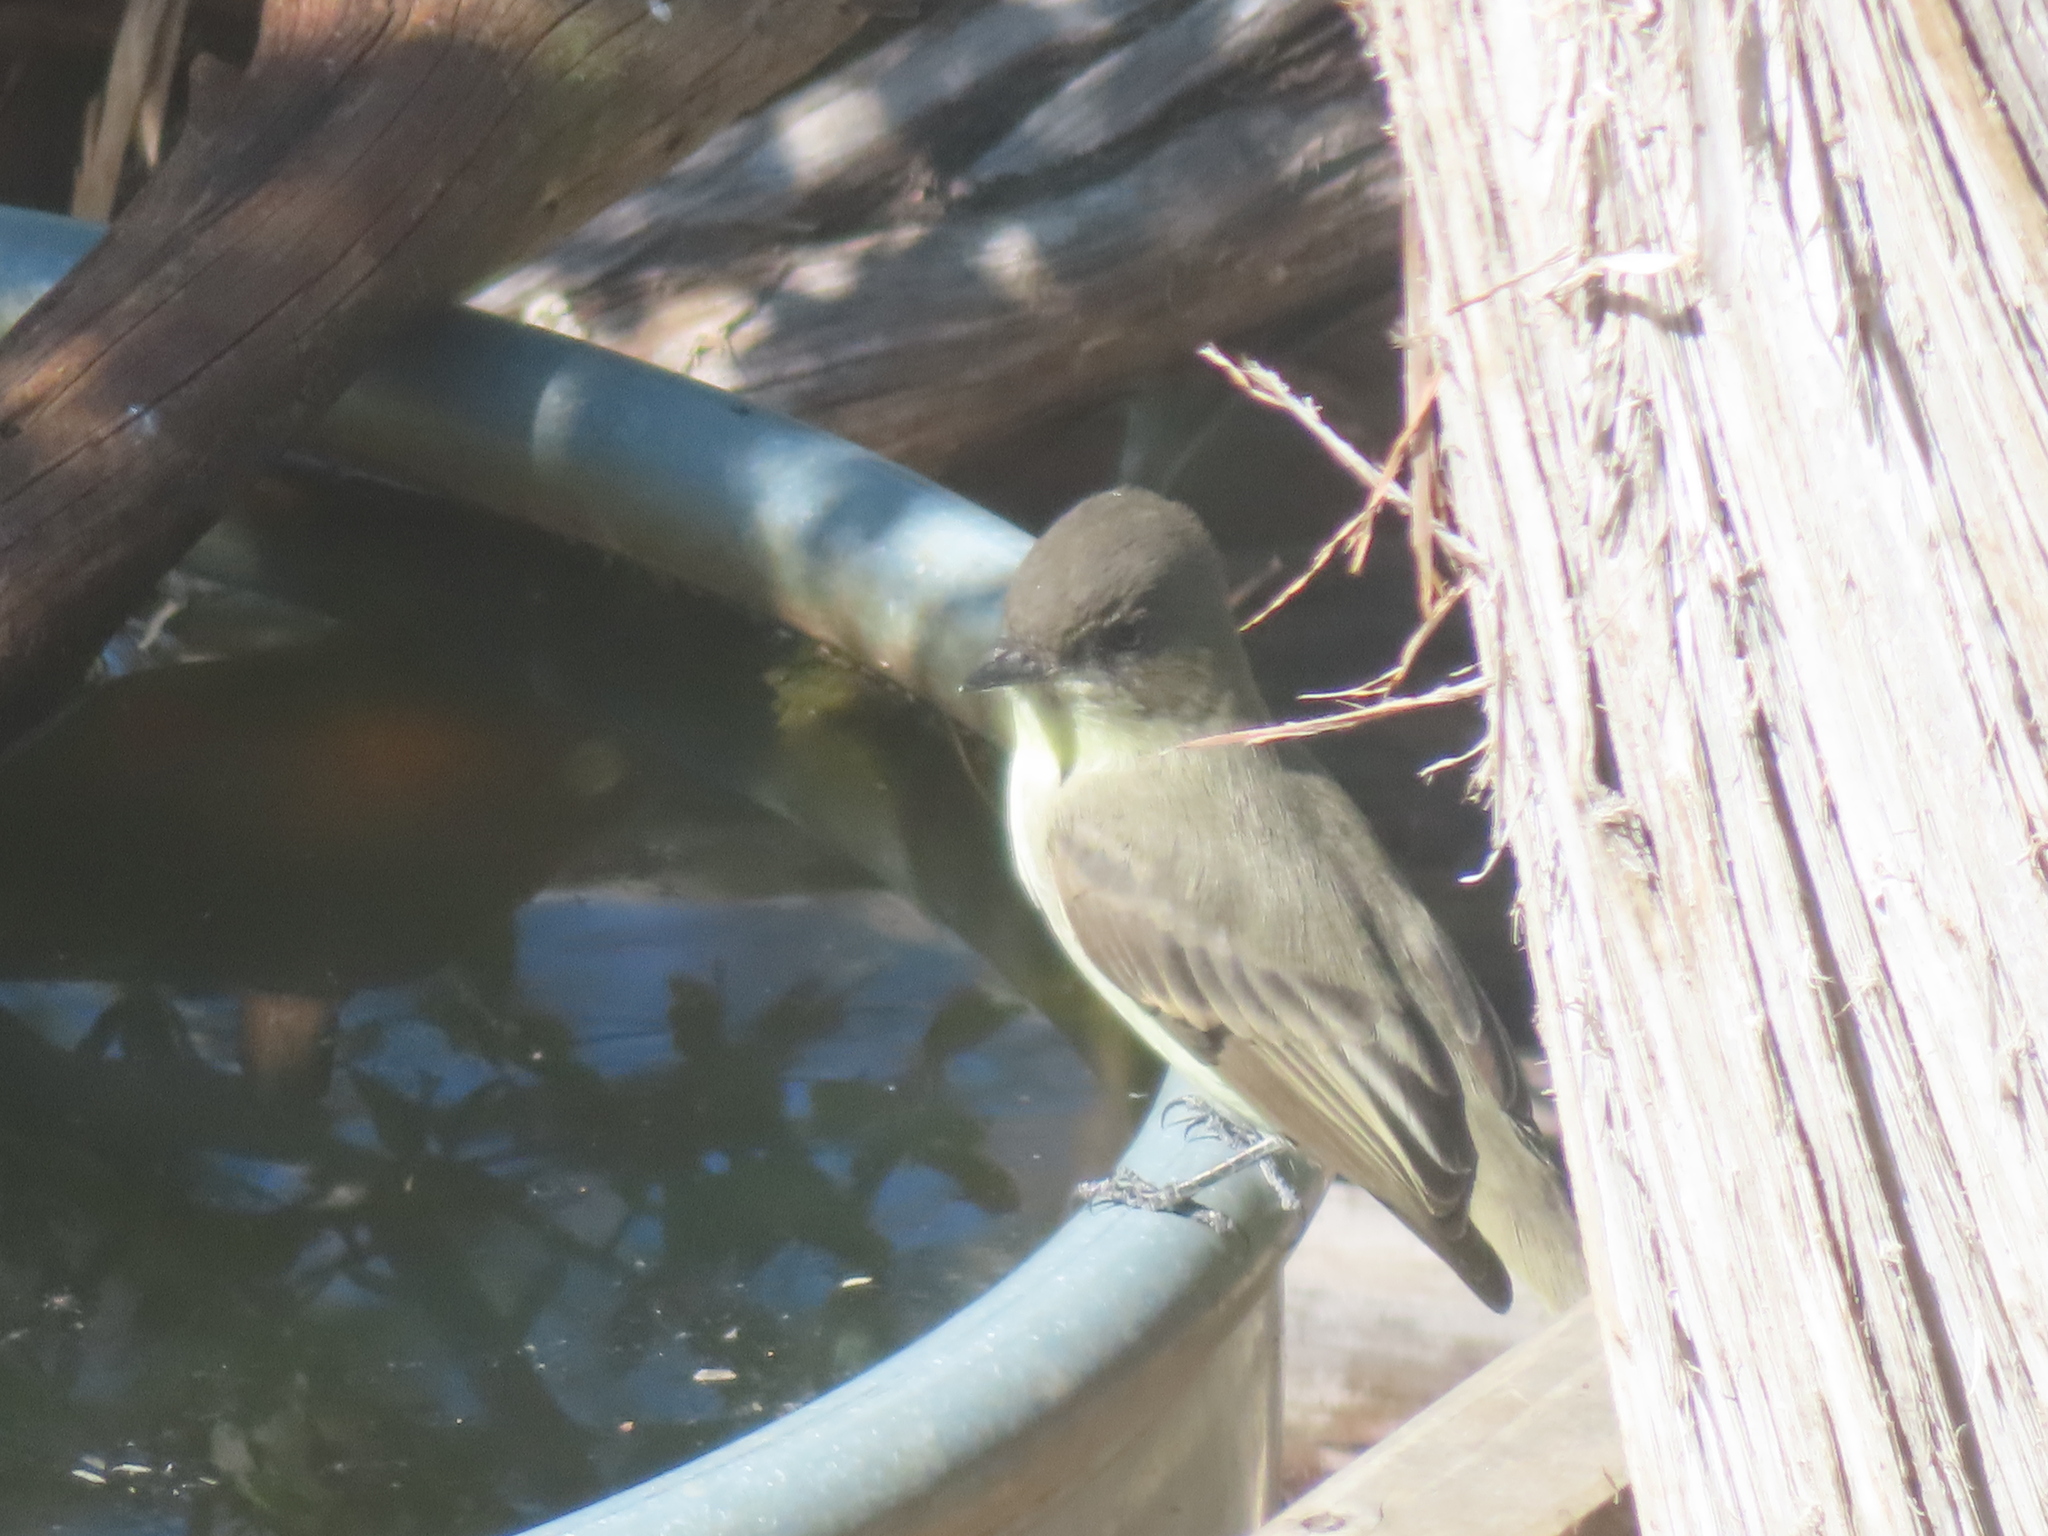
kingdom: Animalia
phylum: Chordata
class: Aves
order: Passeriformes
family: Tyrannidae
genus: Sayornis
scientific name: Sayornis phoebe
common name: Eastern phoebe
